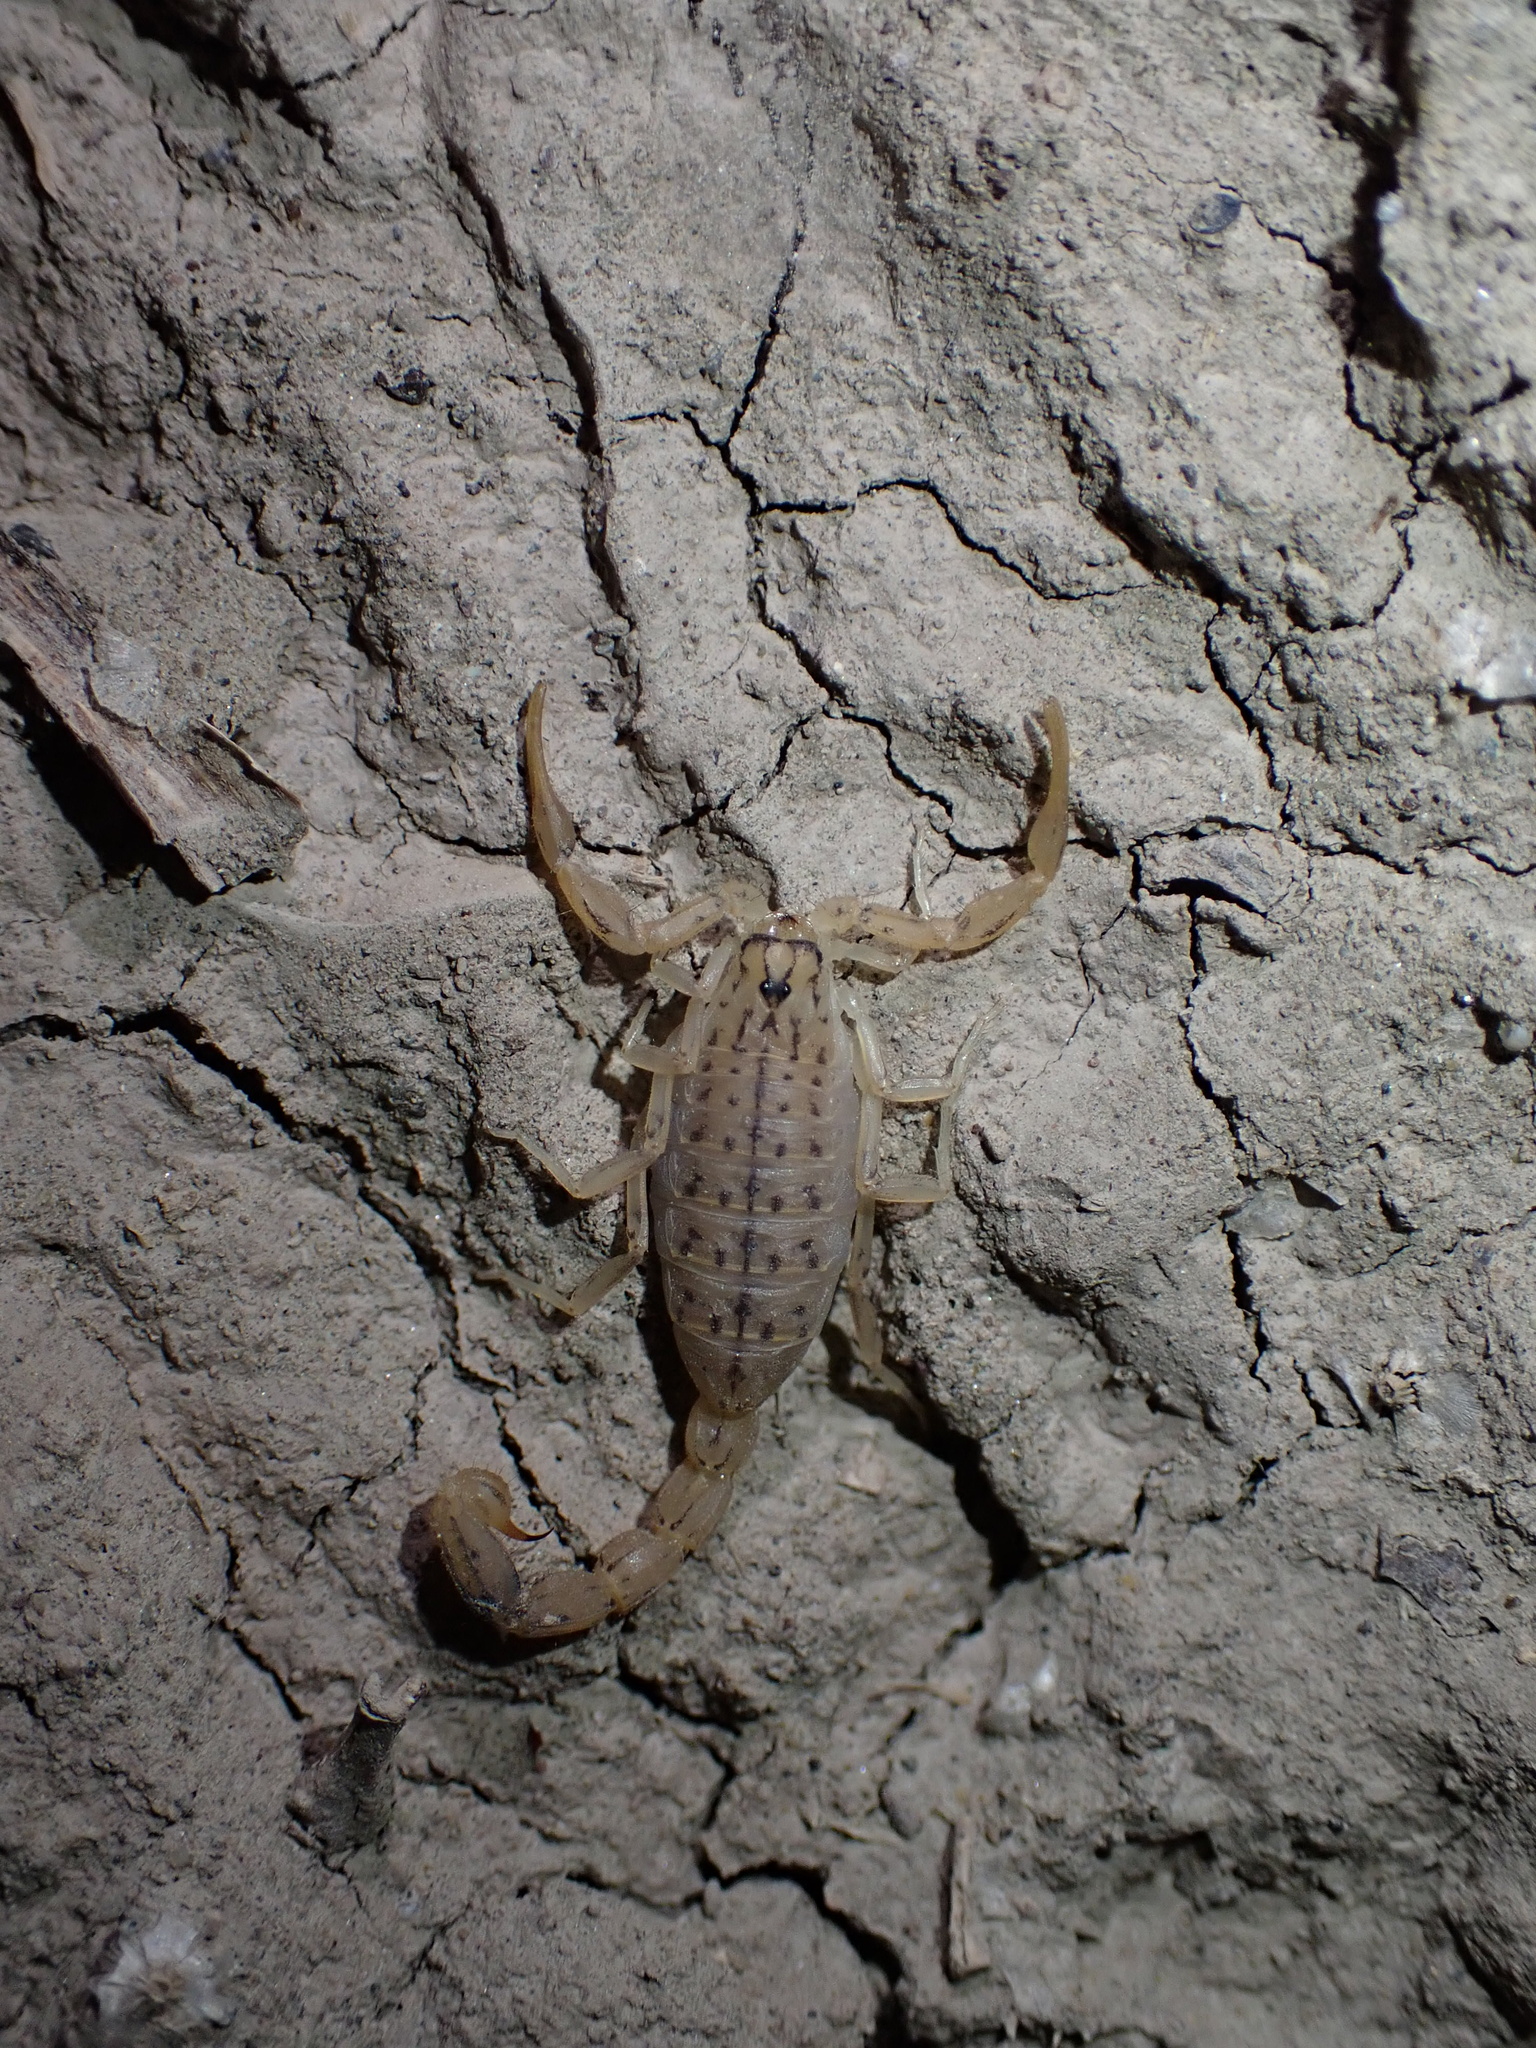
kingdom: Animalia
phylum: Arthropoda
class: Arachnida
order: Scorpiones
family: Buthidae
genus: Mesobuthus
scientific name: Mesobuthus mirshamsii
